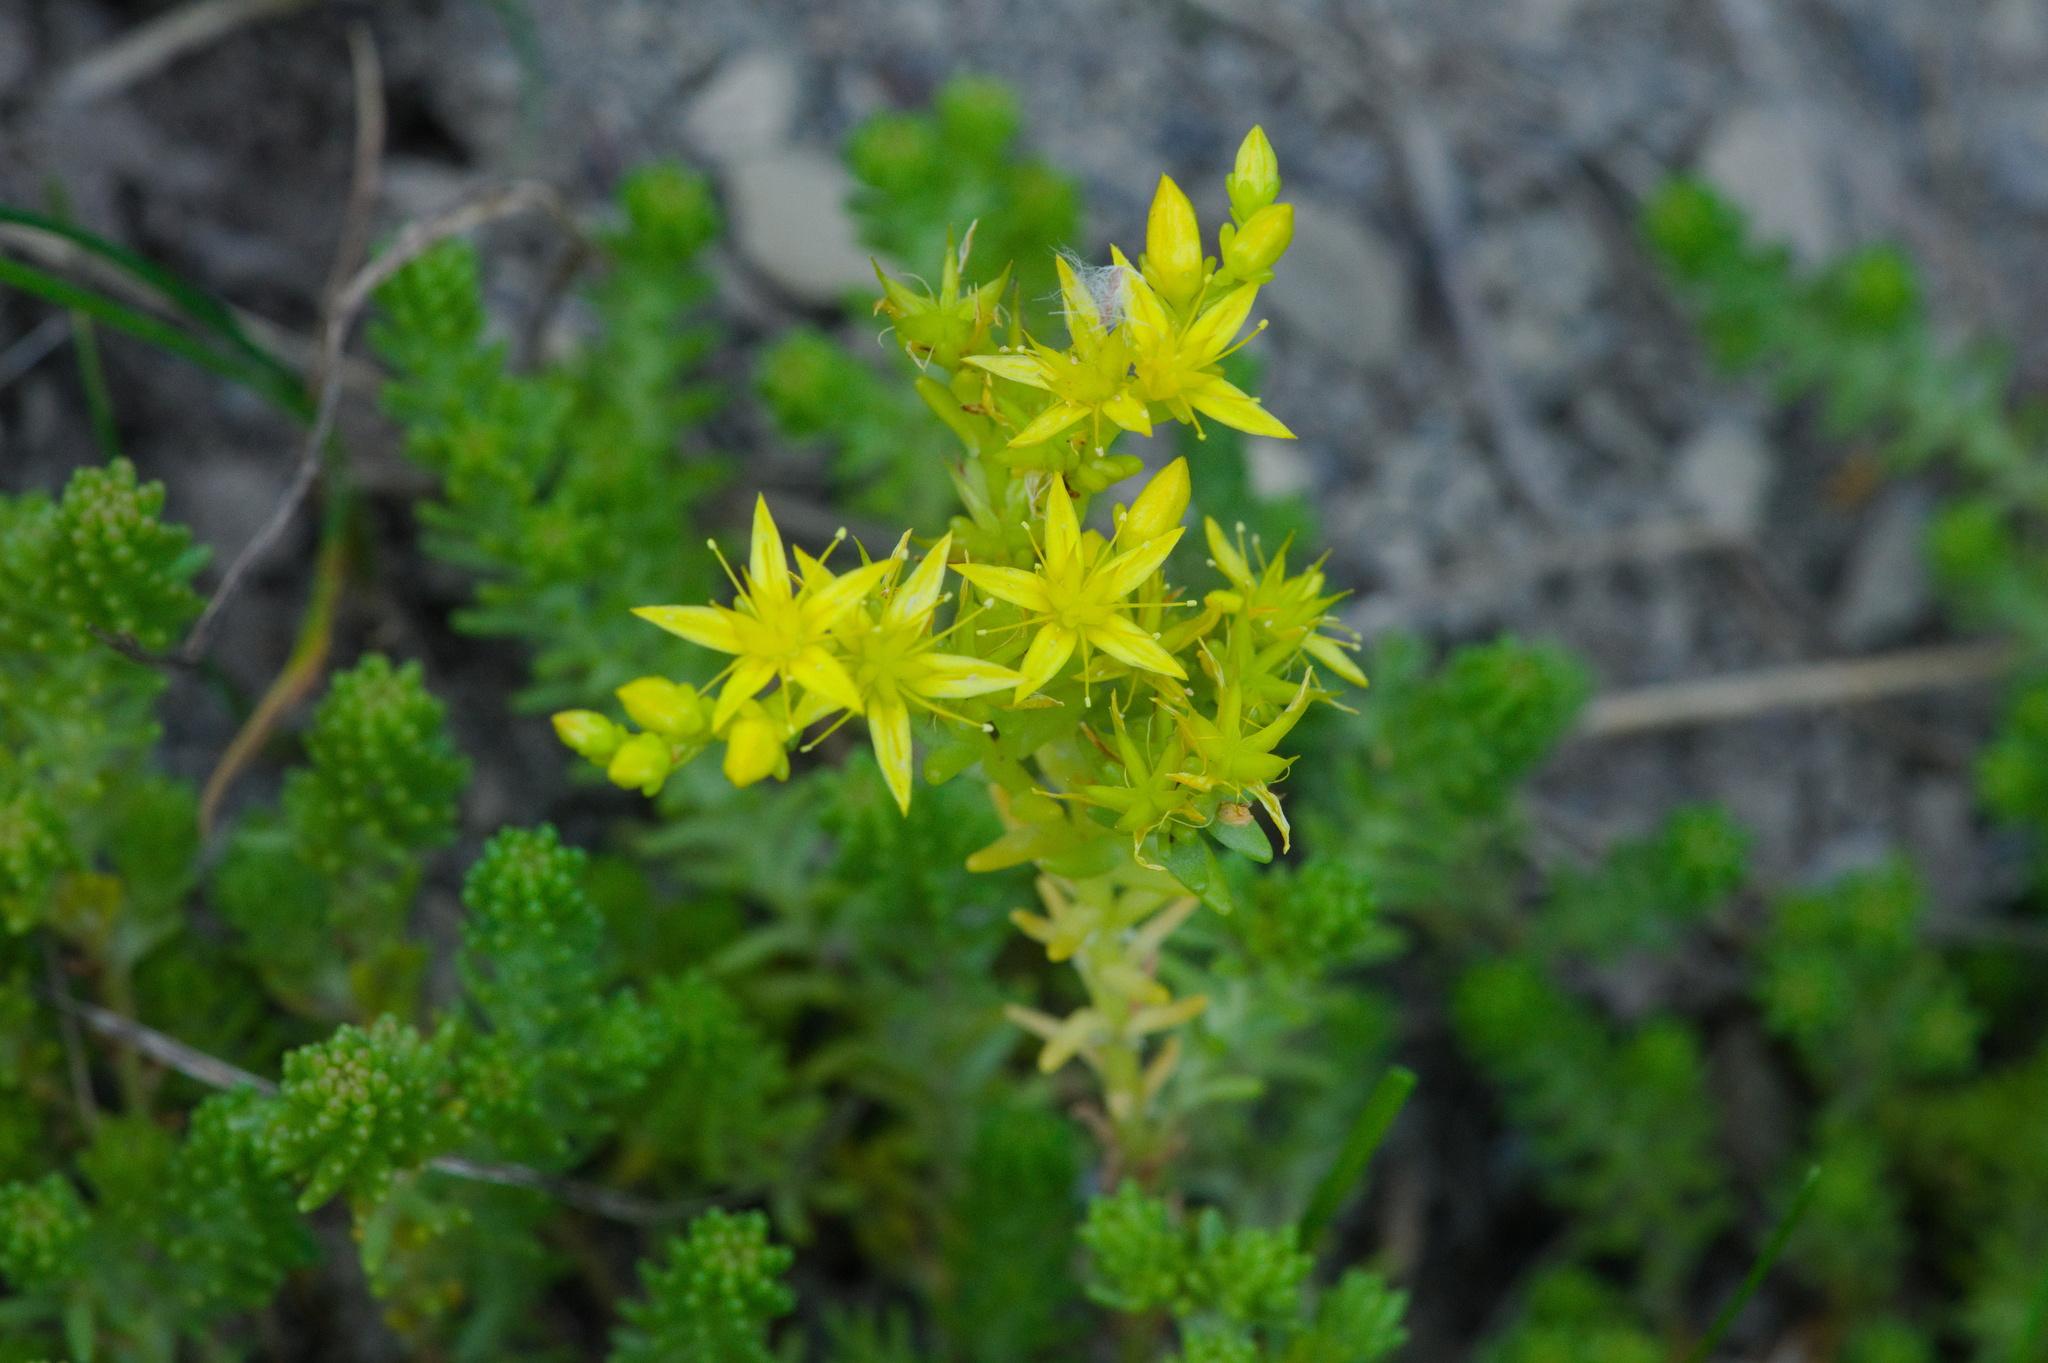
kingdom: Plantae
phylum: Tracheophyta
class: Magnoliopsida
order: Saxifragales
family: Crassulaceae
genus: Sedum
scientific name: Sedum sexangulare
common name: Tasteless stonecrop
